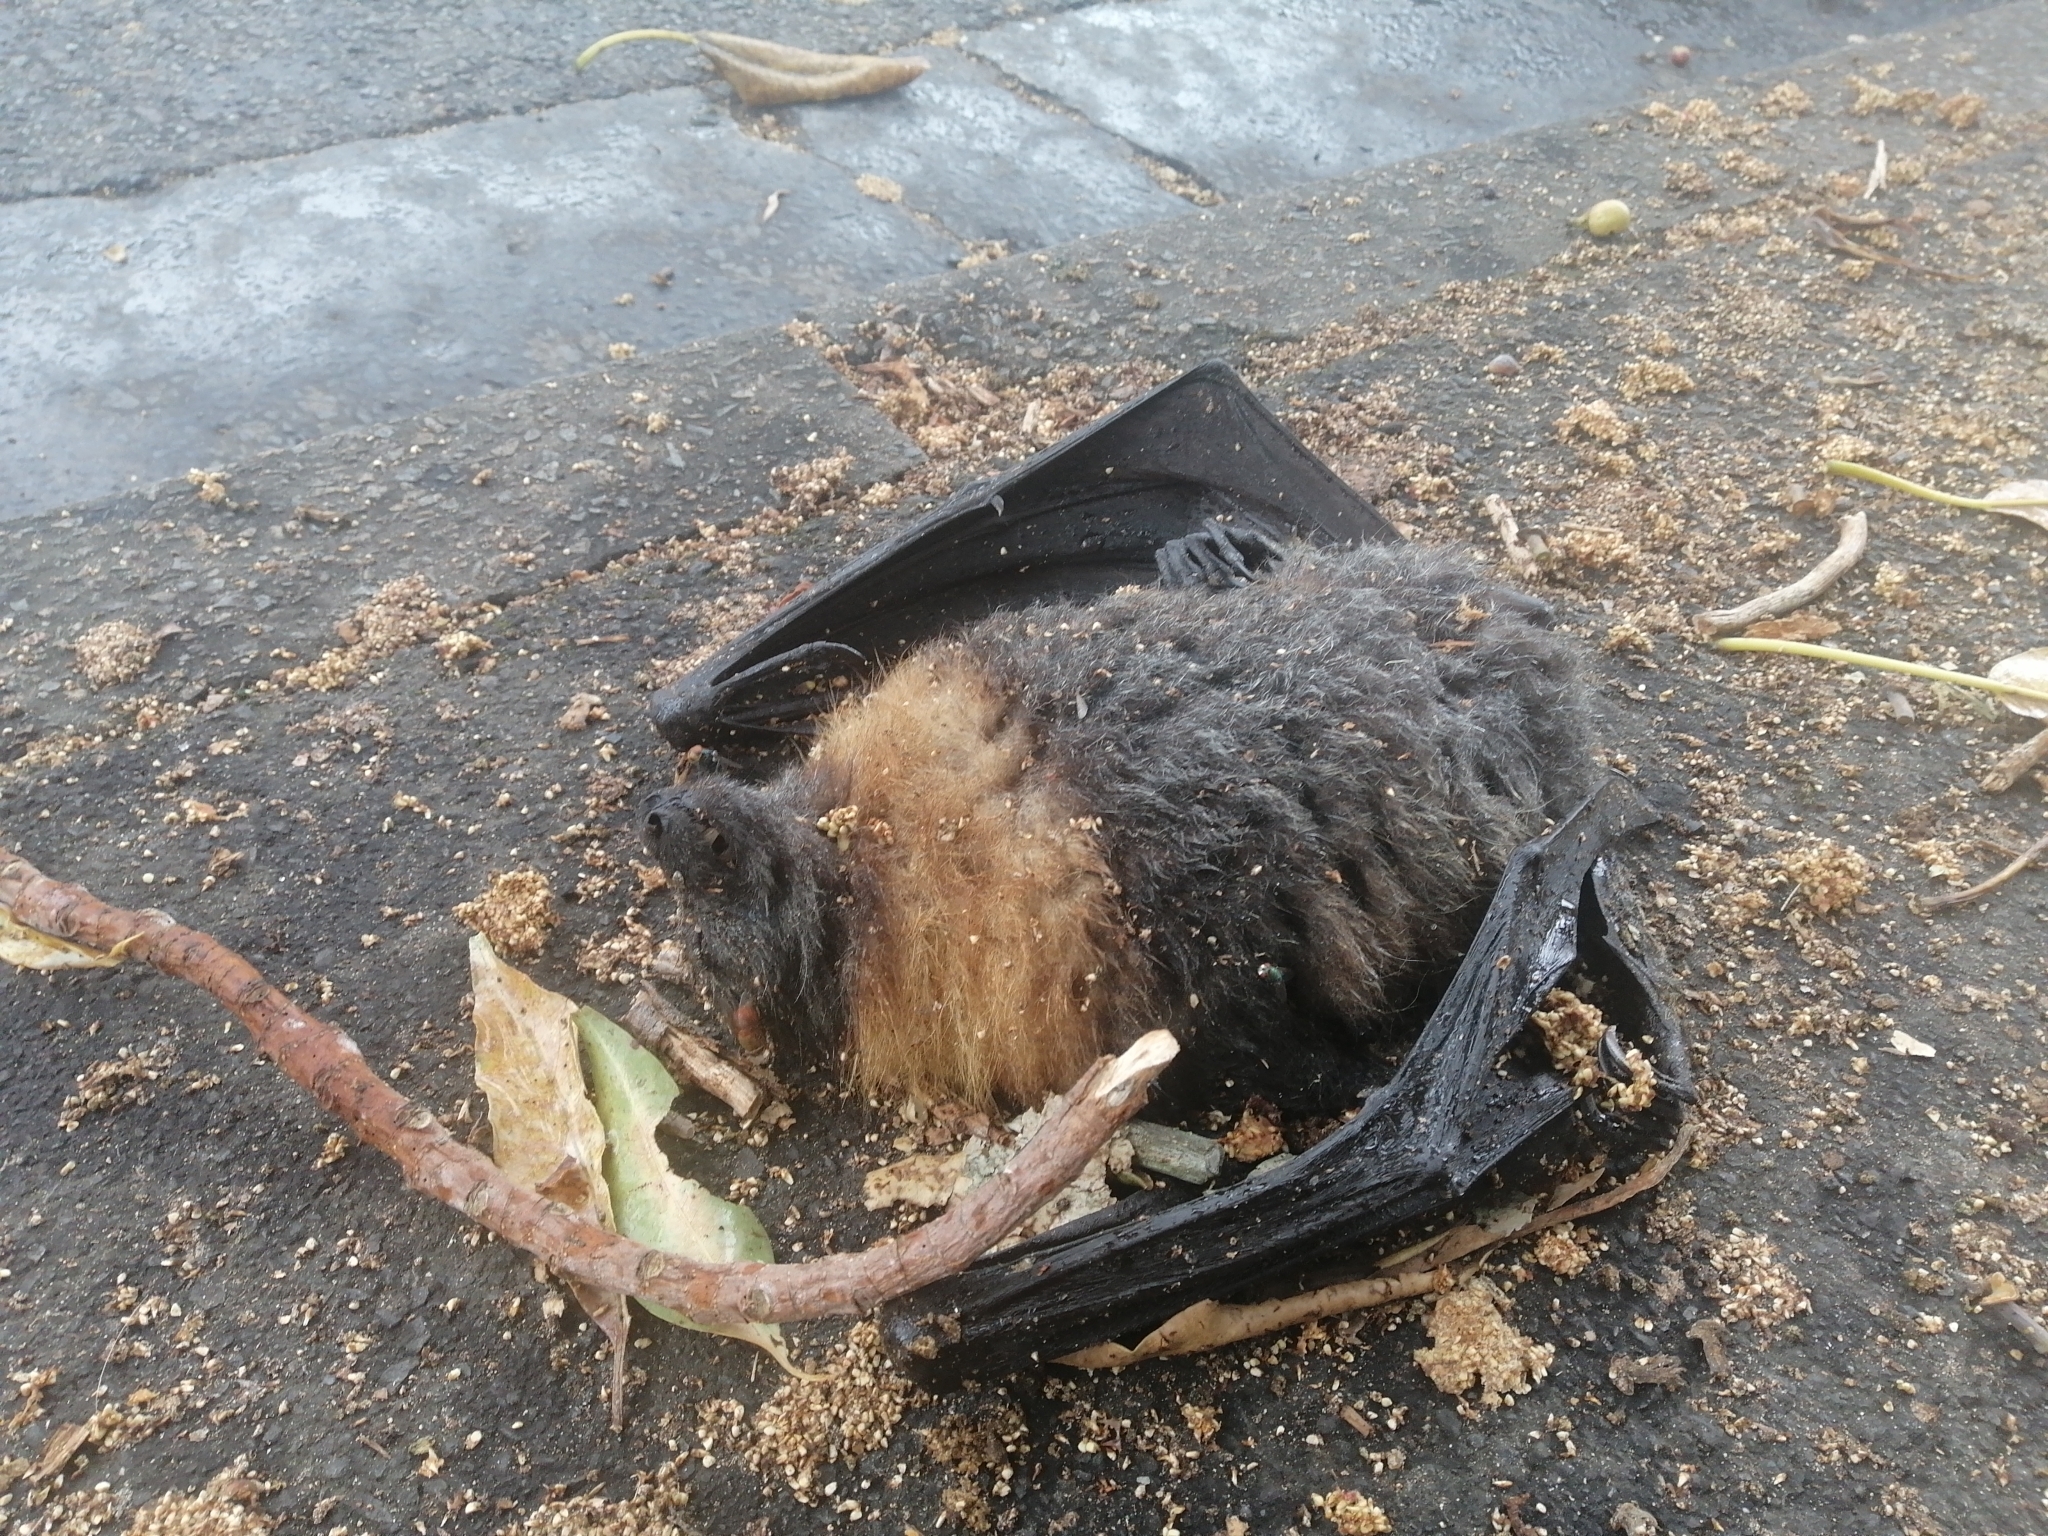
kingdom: Animalia
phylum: Chordata
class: Mammalia
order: Chiroptera
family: Pteropodidae
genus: Pteropus
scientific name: Pteropus poliocephalus
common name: Gray-headed flying fox
